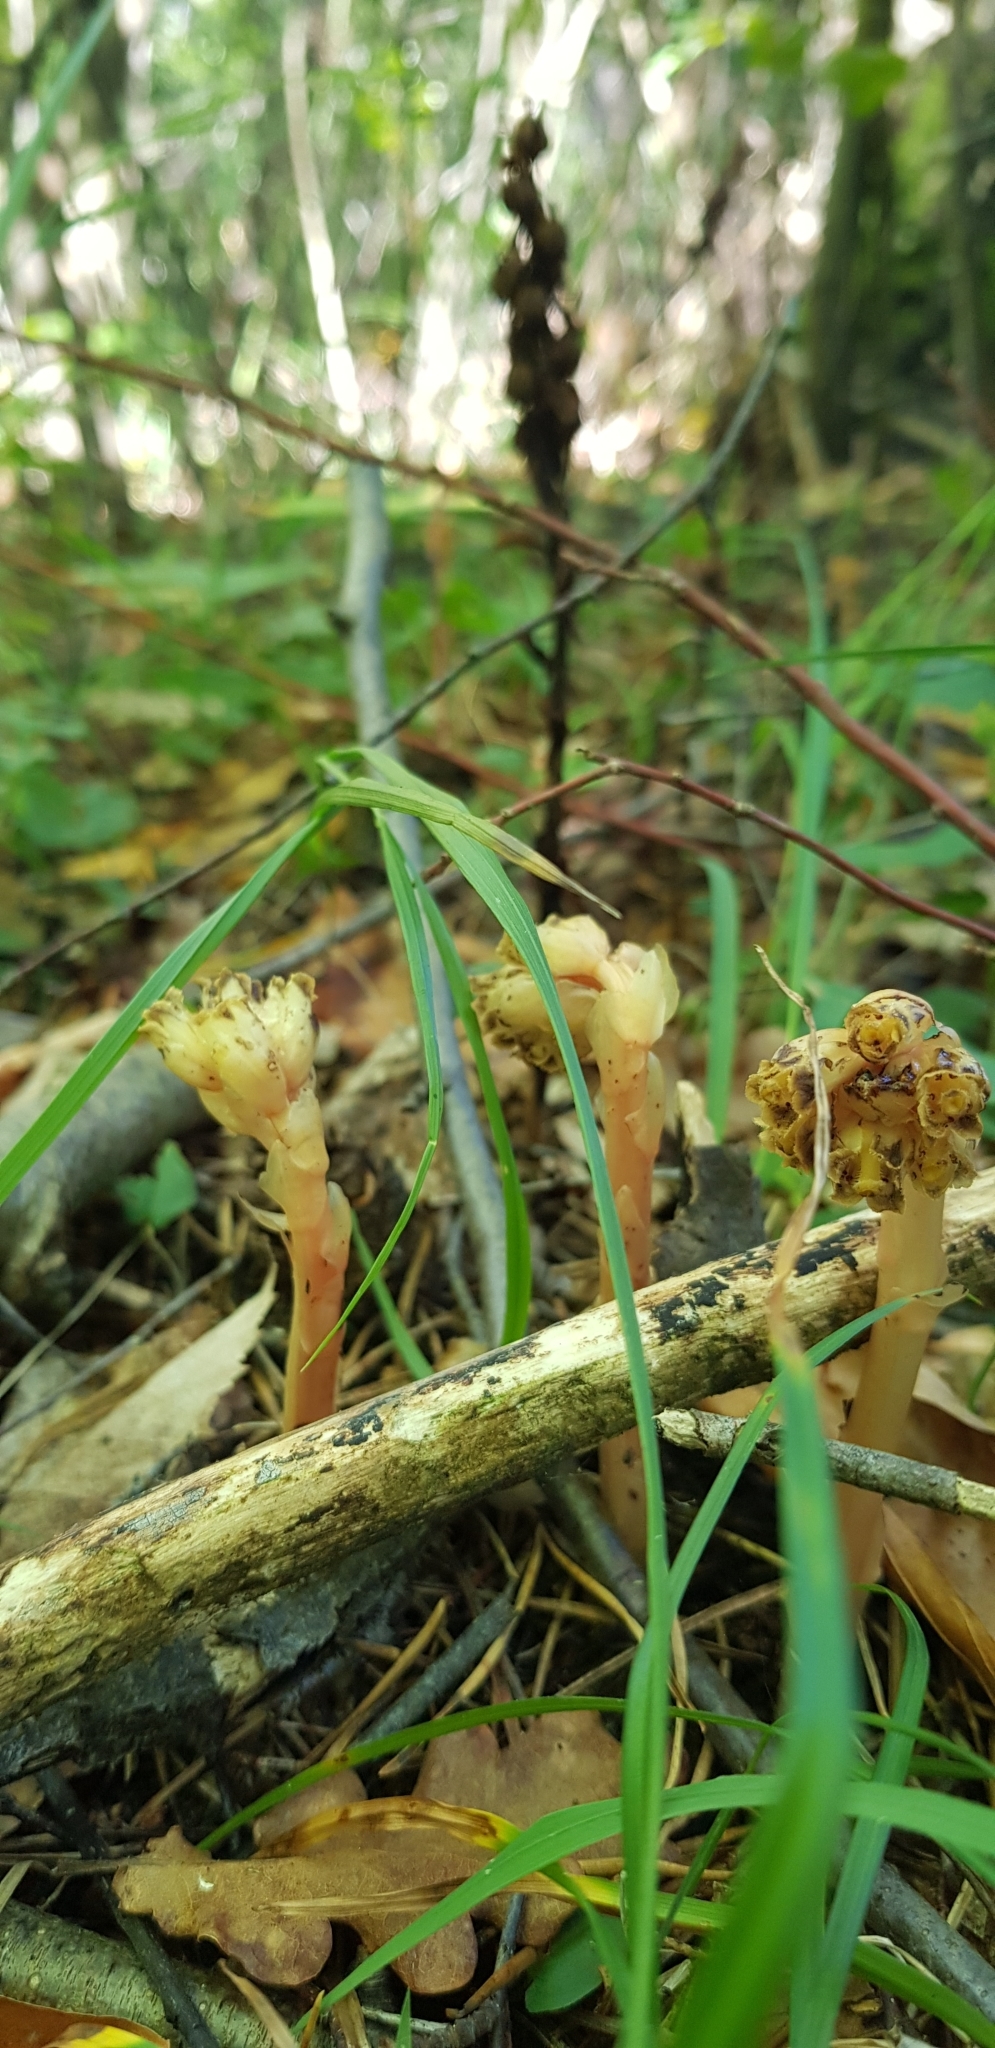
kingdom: Plantae
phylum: Tracheophyta
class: Magnoliopsida
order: Ericales
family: Ericaceae
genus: Hypopitys
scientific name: Hypopitys monotropa
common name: Yellow bird's-nest
